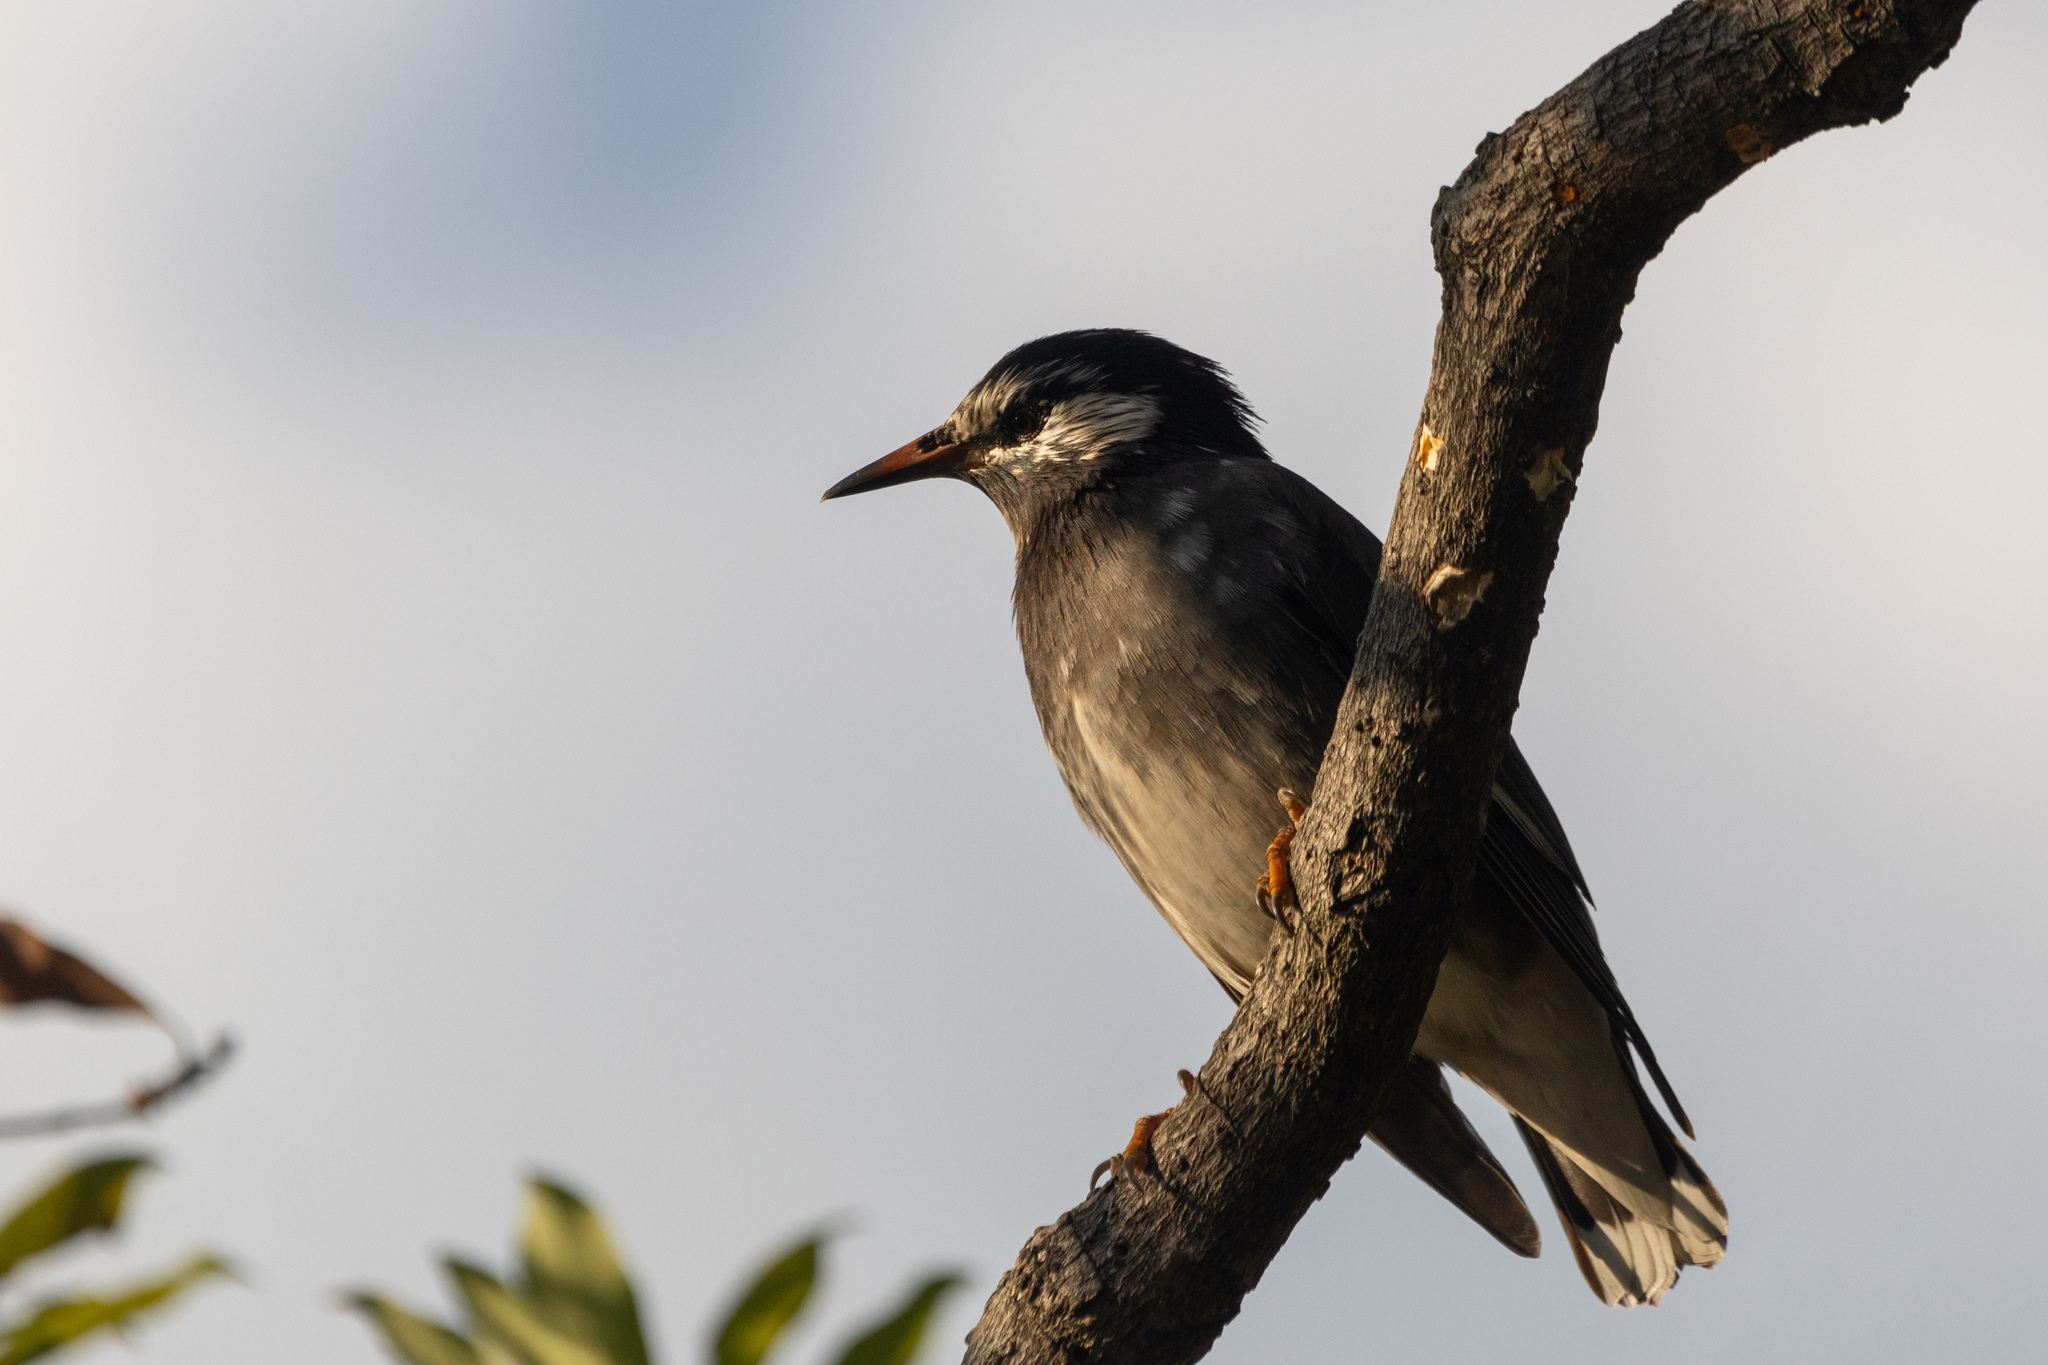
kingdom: Animalia
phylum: Chordata
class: Aves
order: Passeriformes
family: Sturnidae
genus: Spodiopsar
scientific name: Spodiopsar cineraceus
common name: White-cheeked starling
